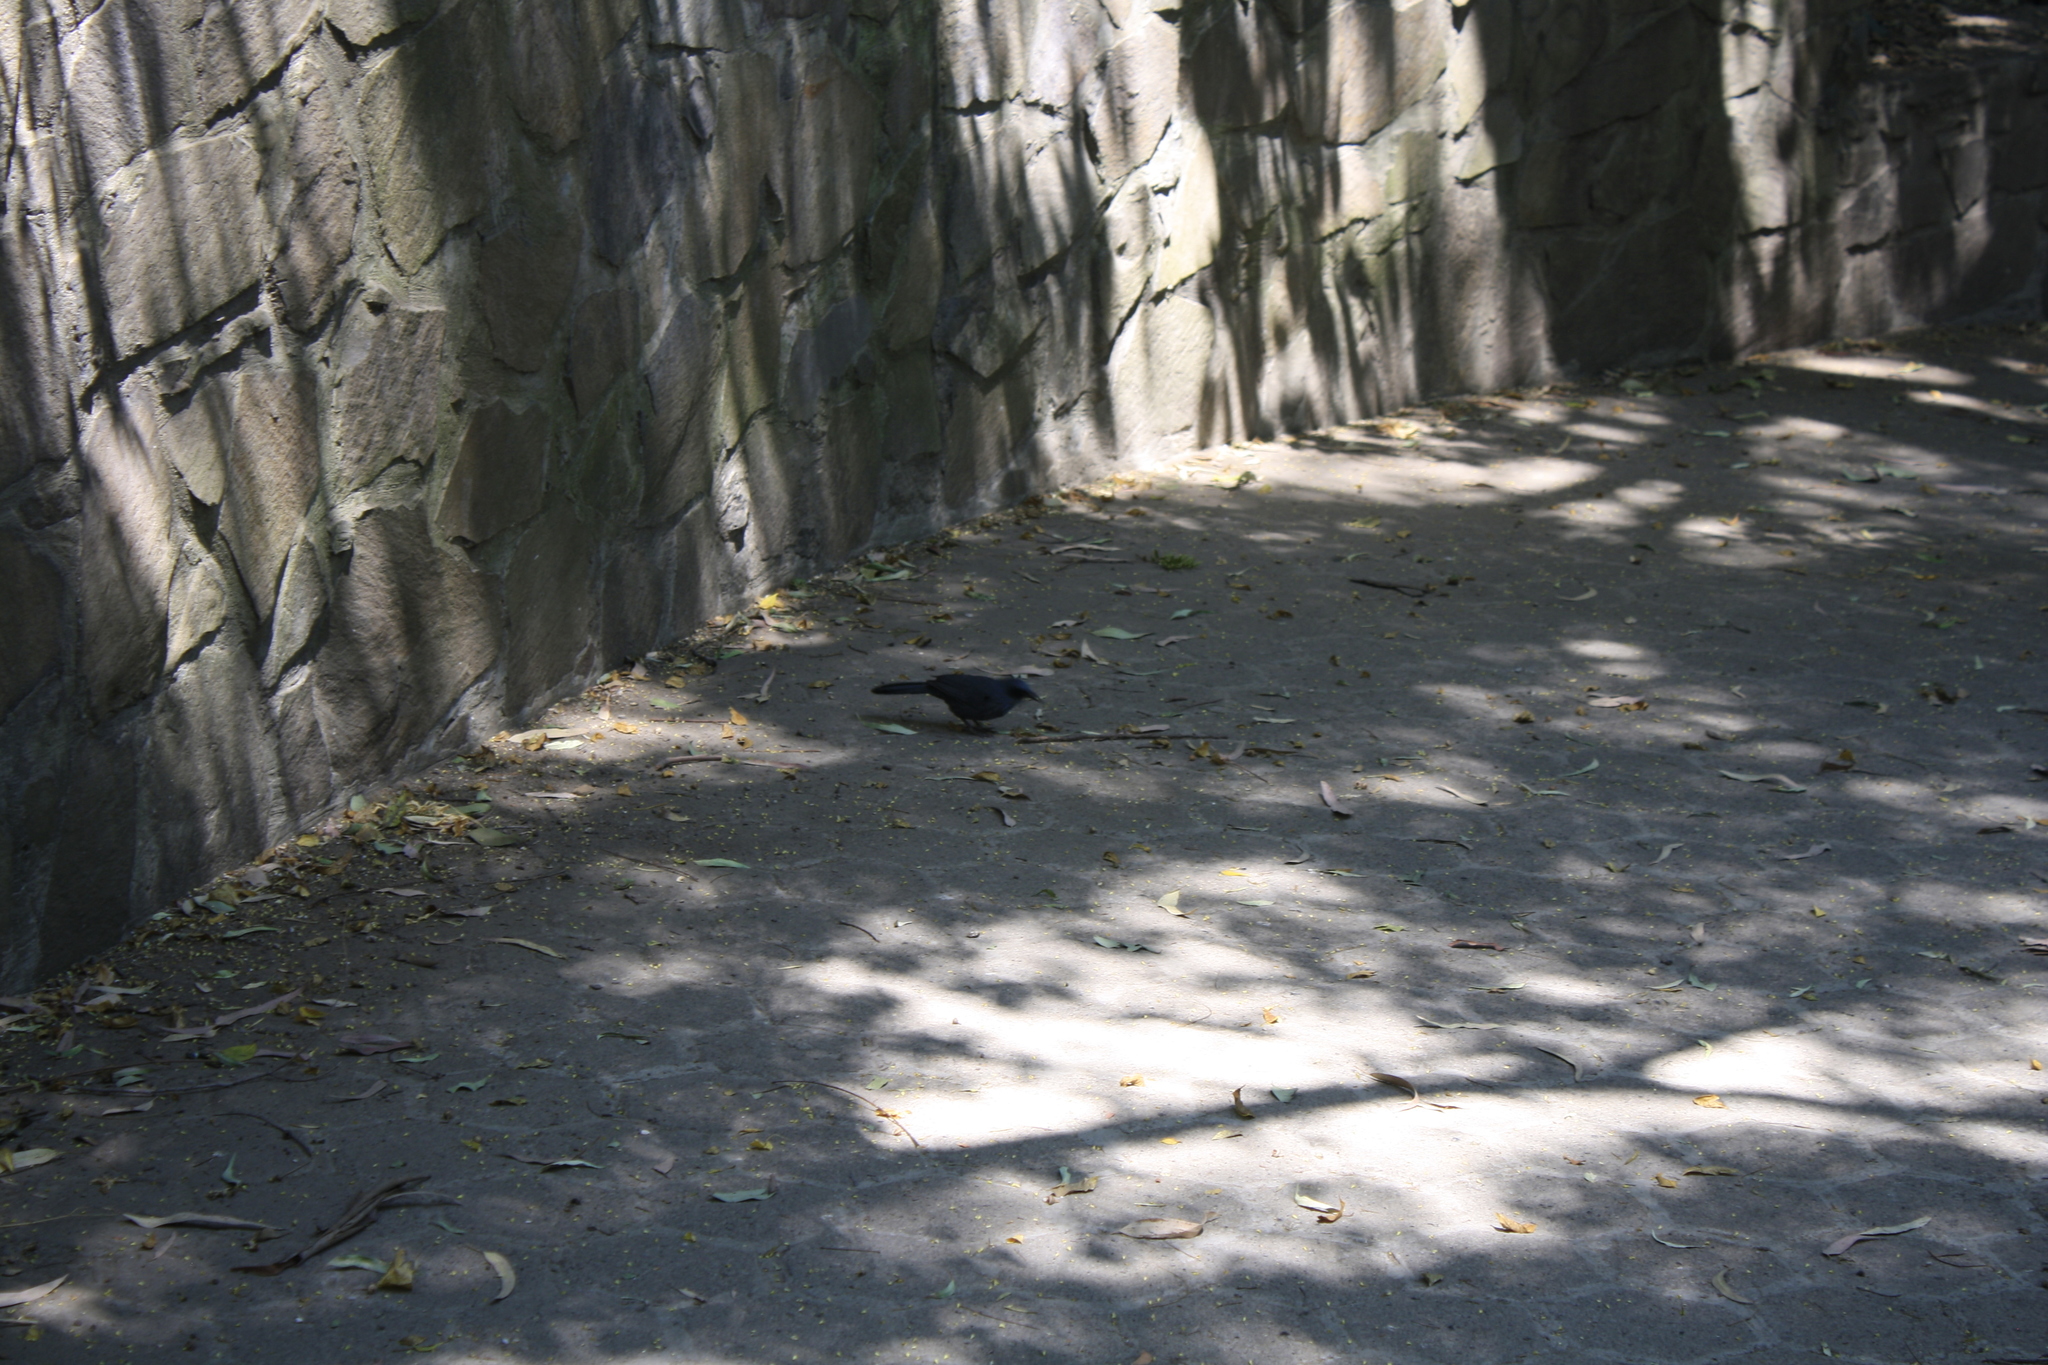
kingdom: Animalia
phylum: Chordata
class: Aves
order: Passeriformes
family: Mimidae
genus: Melanotis
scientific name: Melanotis caerulescens
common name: Blue mockingbird
